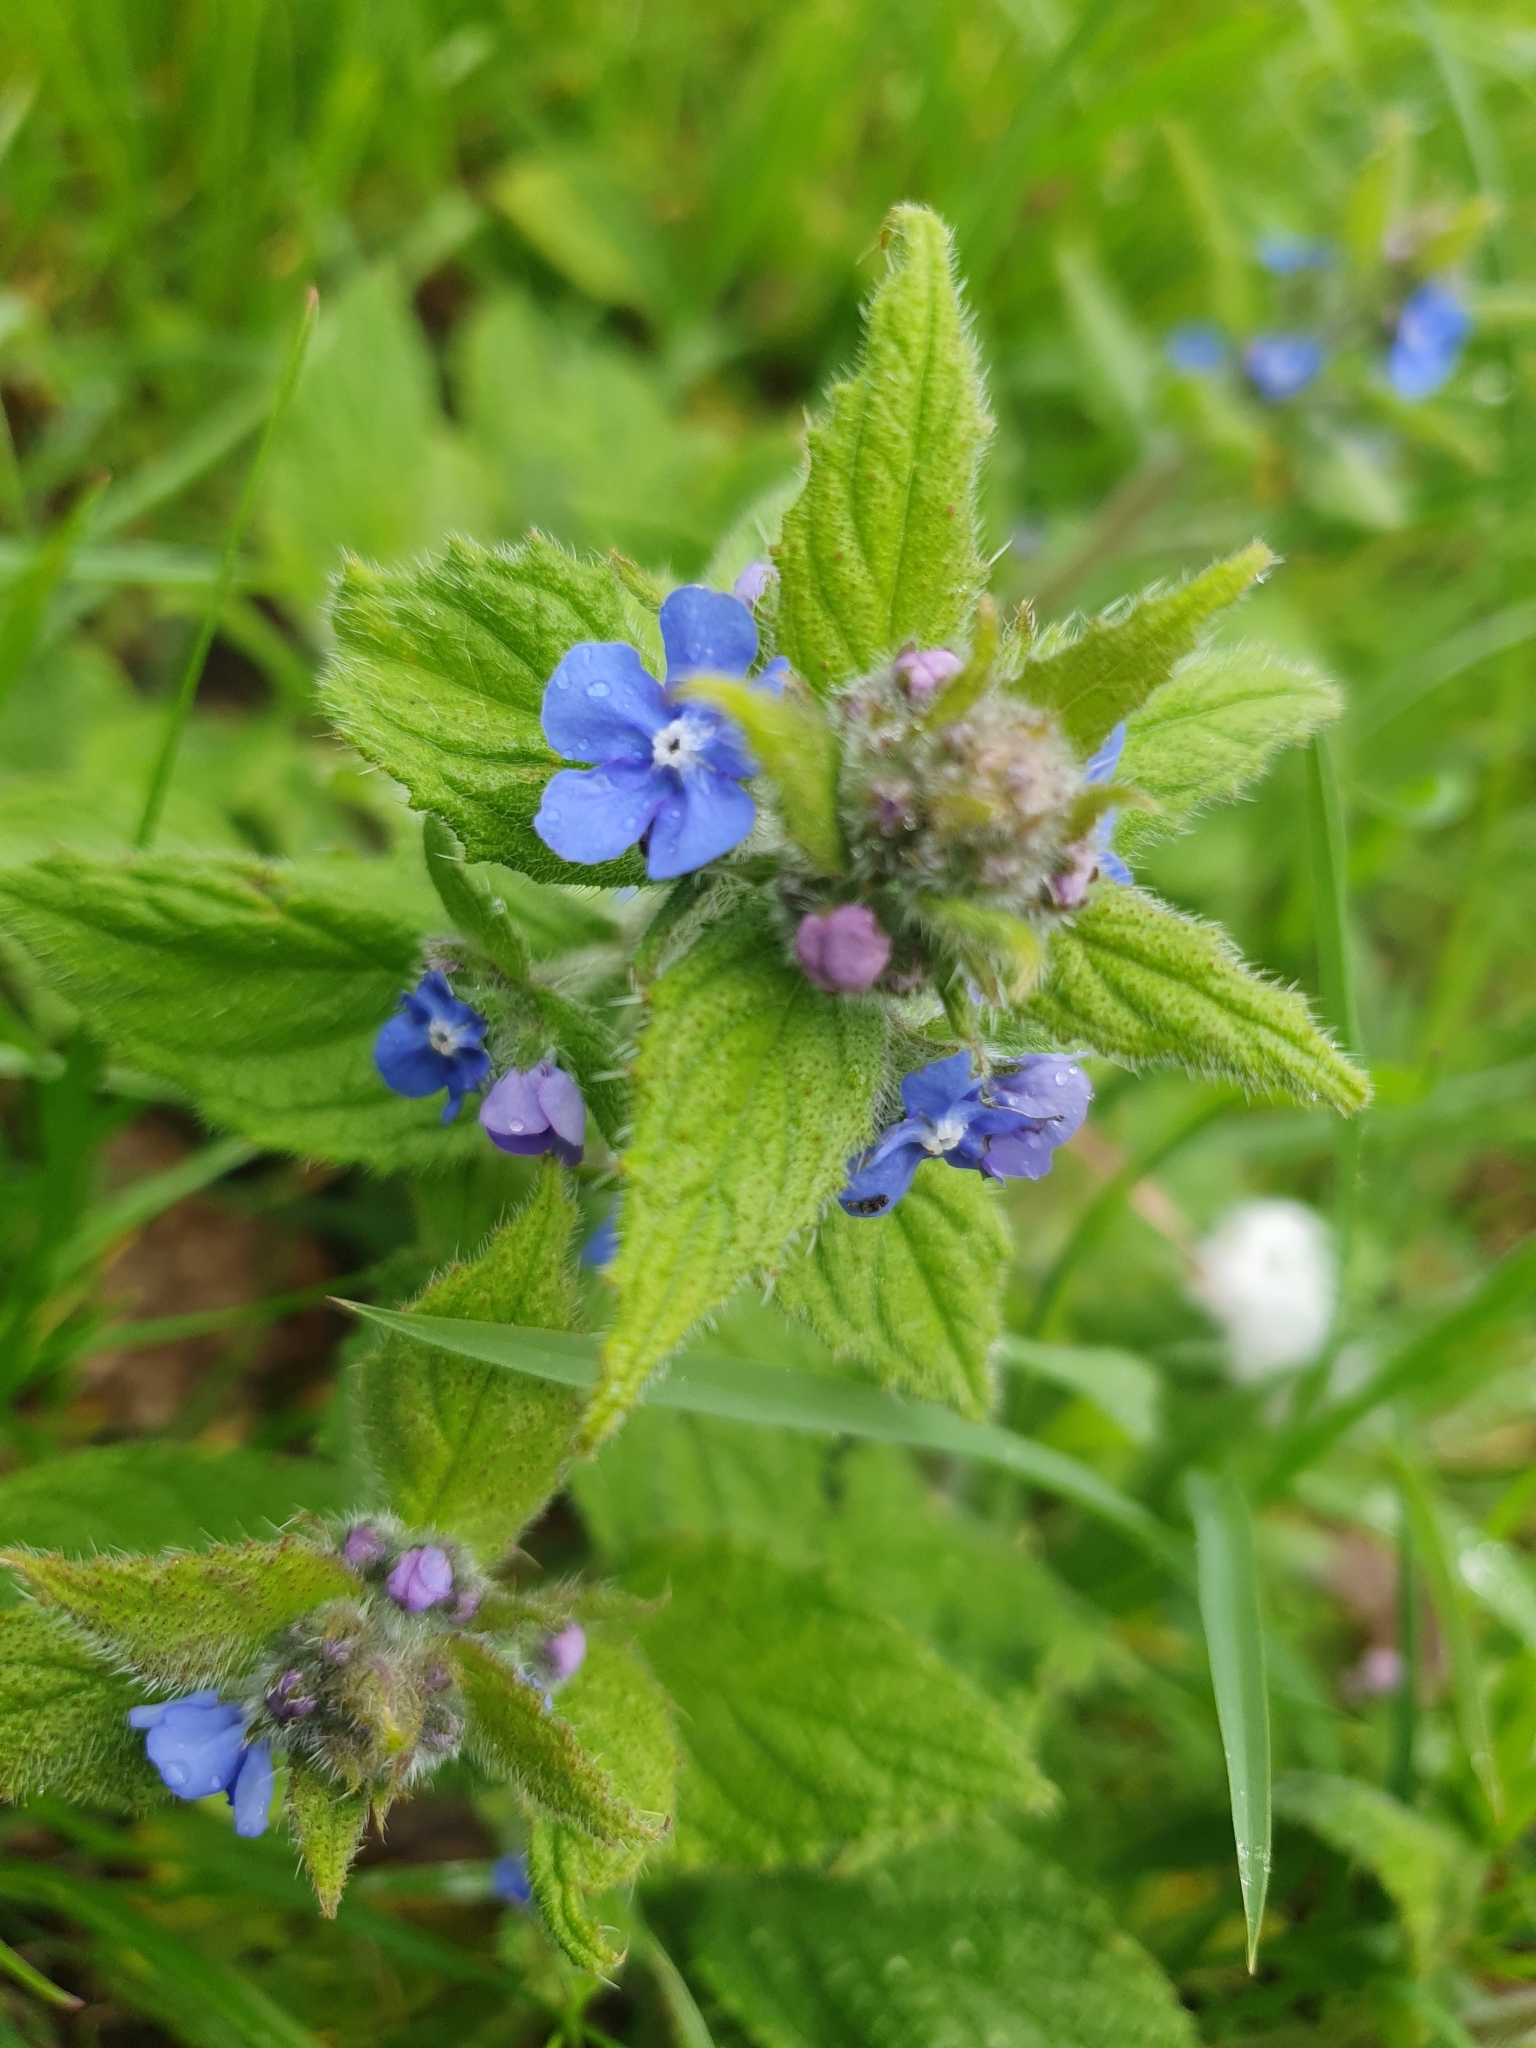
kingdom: Plantae
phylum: Tracheophyta
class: Magnoliopsida
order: Boraginales
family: Boraginaceae
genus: Pentaglottis
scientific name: Pentaglottis sempervirens
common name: Green alkanet
